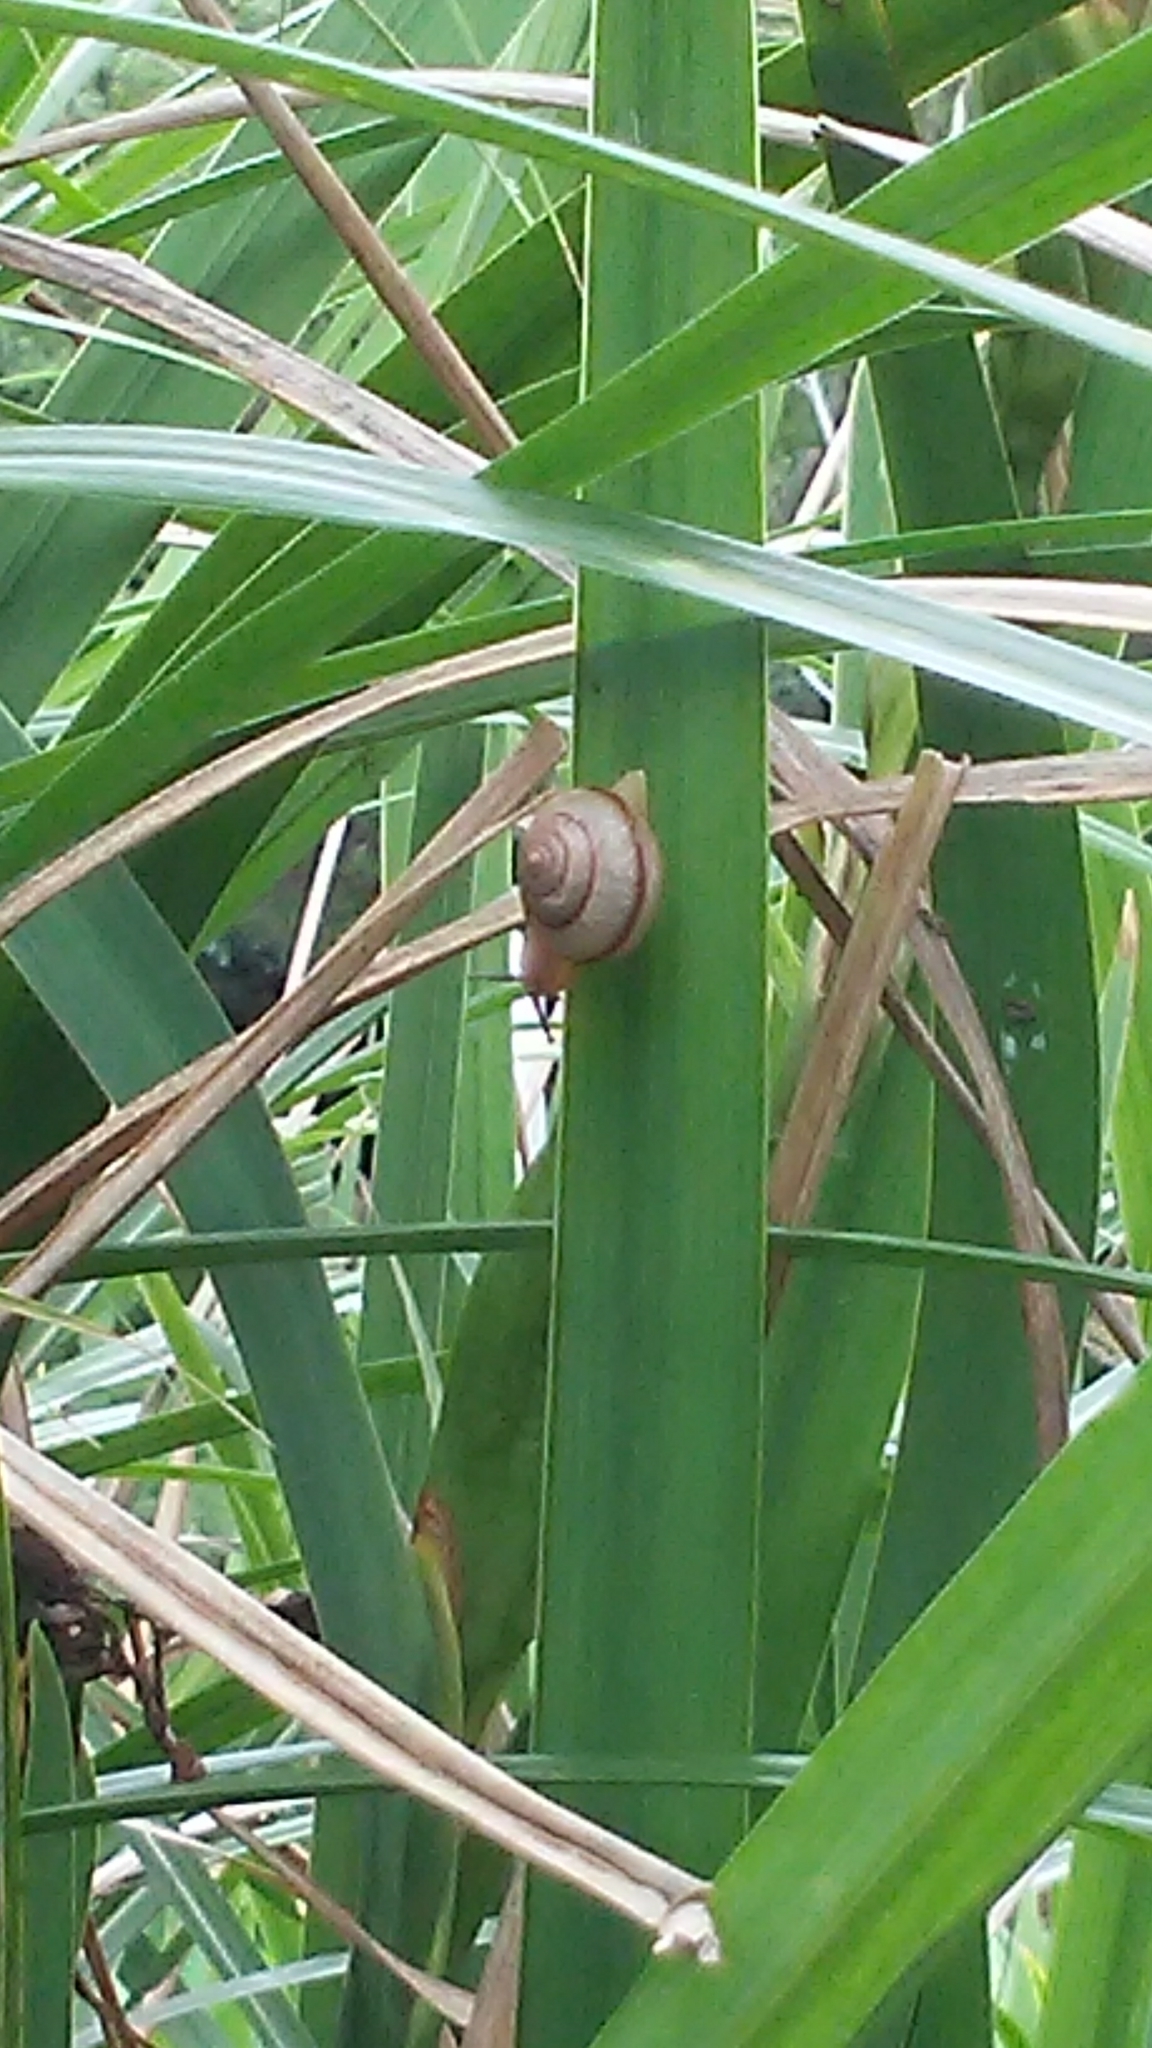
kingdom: Animalia
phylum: Mollusca
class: Gastropoda
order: Stylommatophora
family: Camaenidae
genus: Bradybaena
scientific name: Bradybaena similaris
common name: Asian trampsnail
